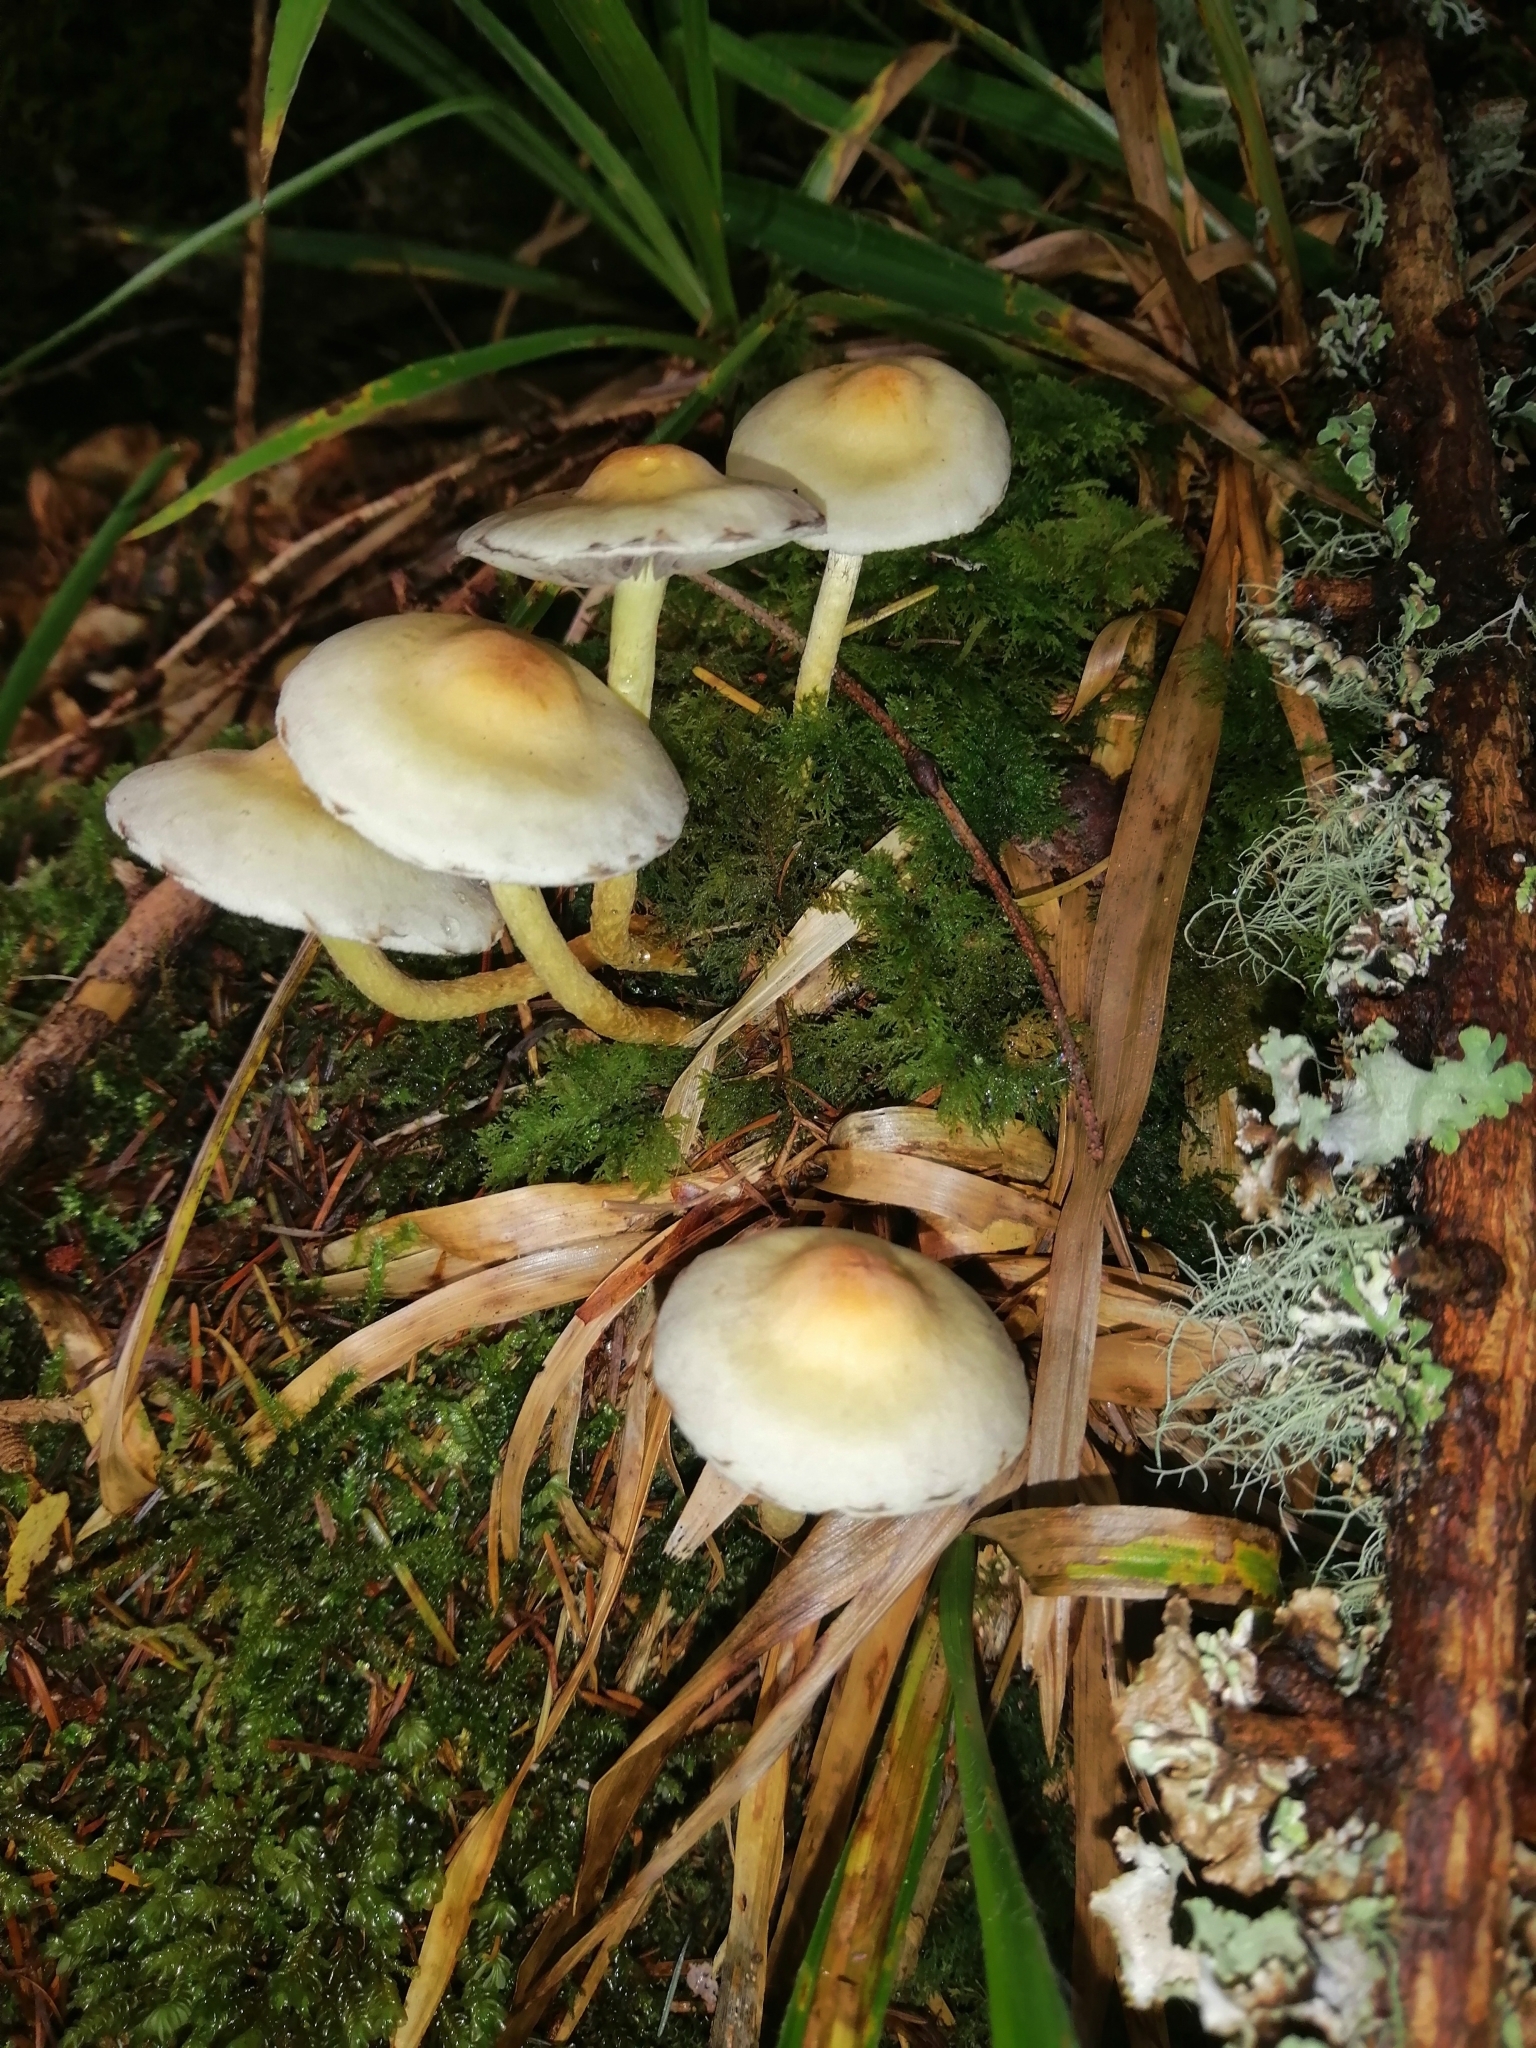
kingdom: Fungi
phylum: Basidiomycota
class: Agaricomycetes
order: Agaricales
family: Strophariaceae
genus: Hypholoma
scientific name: Hypholoma capnoides
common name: Conifer tuft
